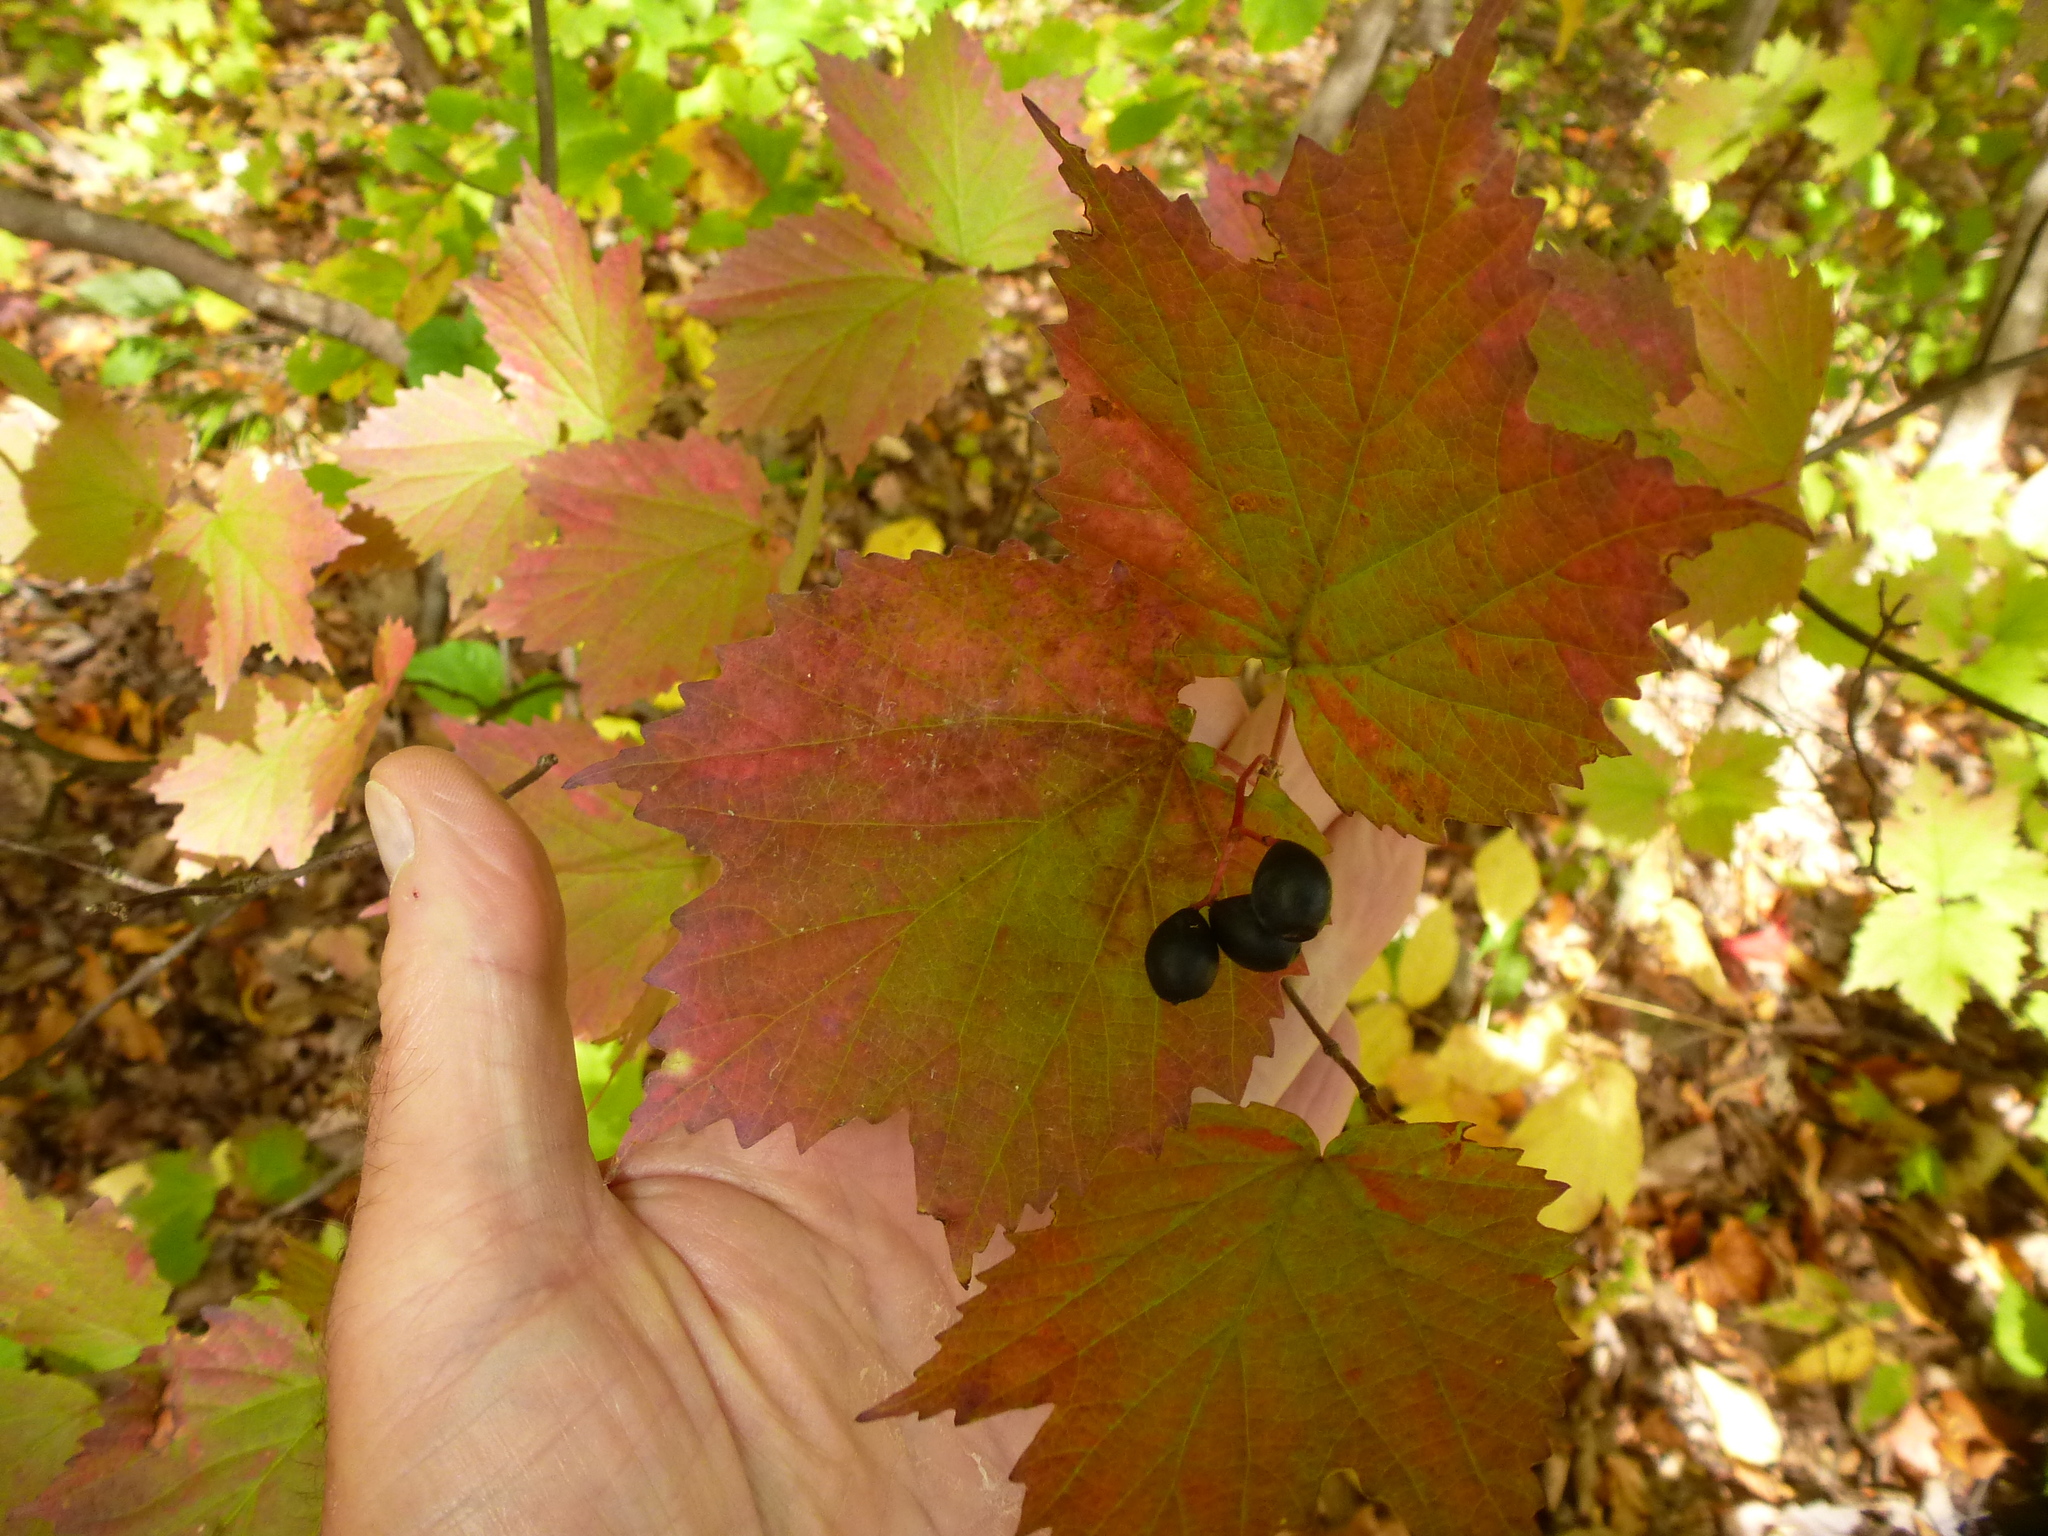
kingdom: Plantae
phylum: Tracheophyta
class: Magnoliopsida
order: Dipsacales
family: Viburnaceae
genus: Viburnum
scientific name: Viburnum acerifolium
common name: Dockmackie
